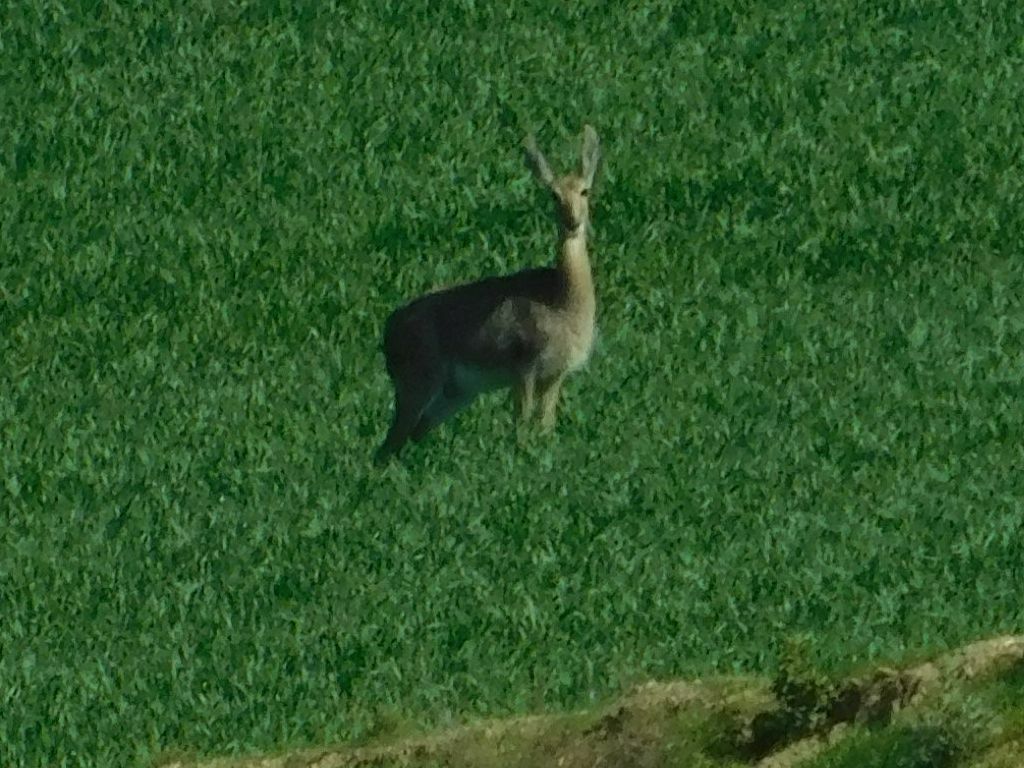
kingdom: Animalia
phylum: Chordata
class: Mammalia
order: Artiodactyla
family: Bovidae
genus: Pelea
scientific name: Pelea capreolus
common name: Common rhebok
